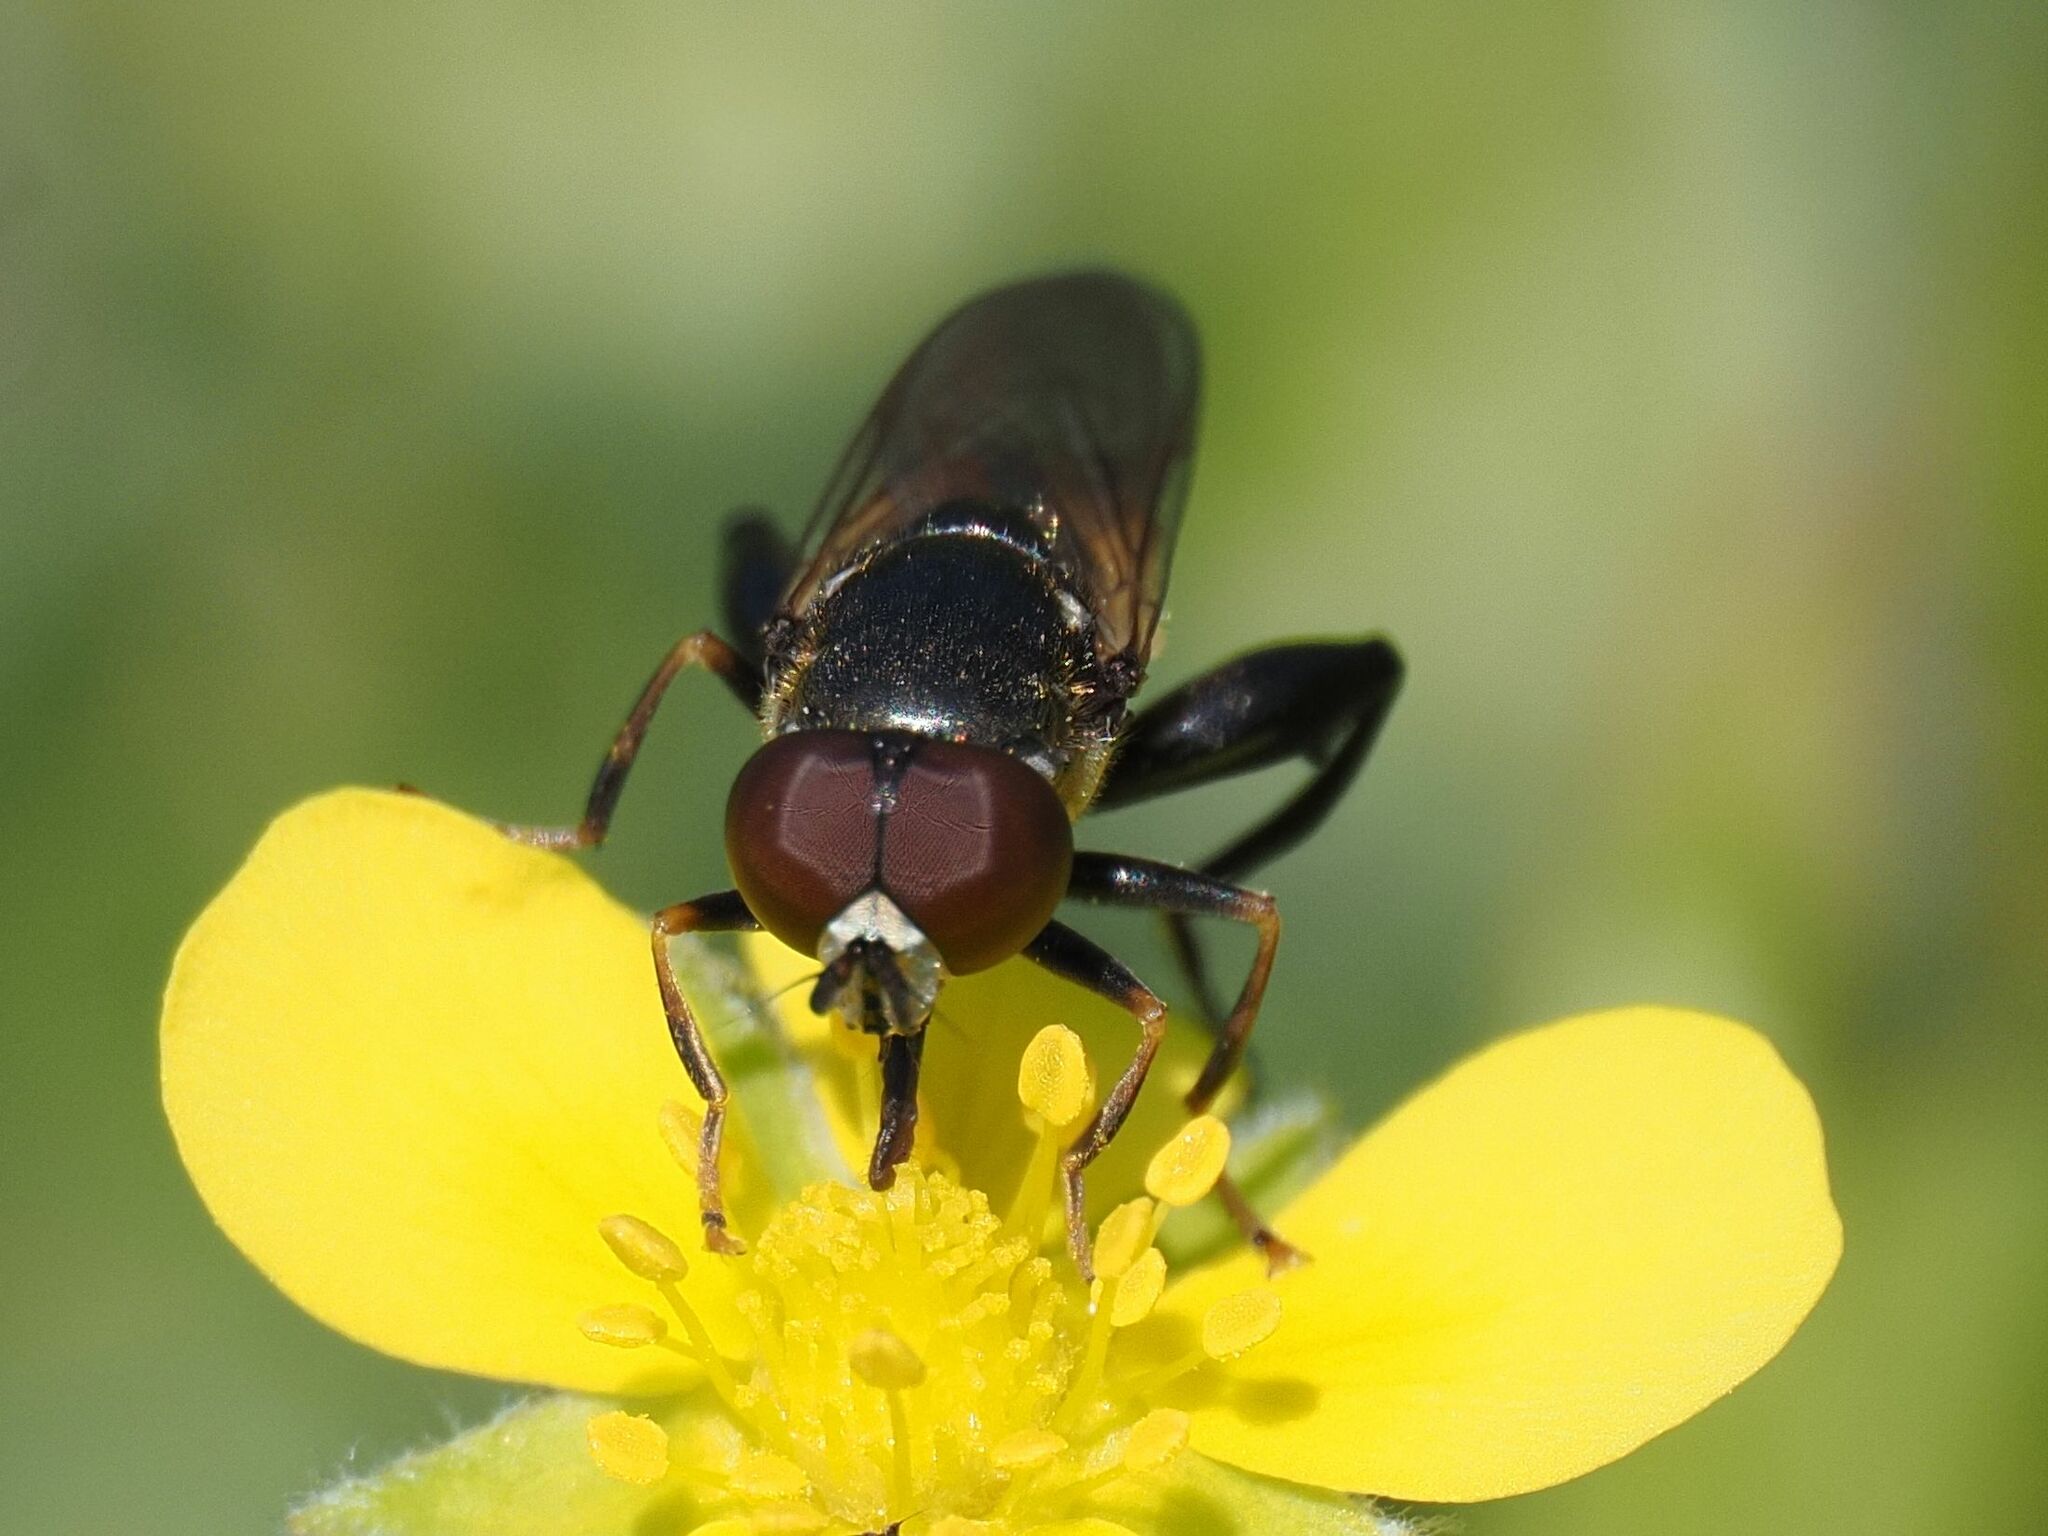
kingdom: Animalia
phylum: Arthropoda
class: Insecta
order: Diptera
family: Syrphidae
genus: Tropidia
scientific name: Tropidia scita
